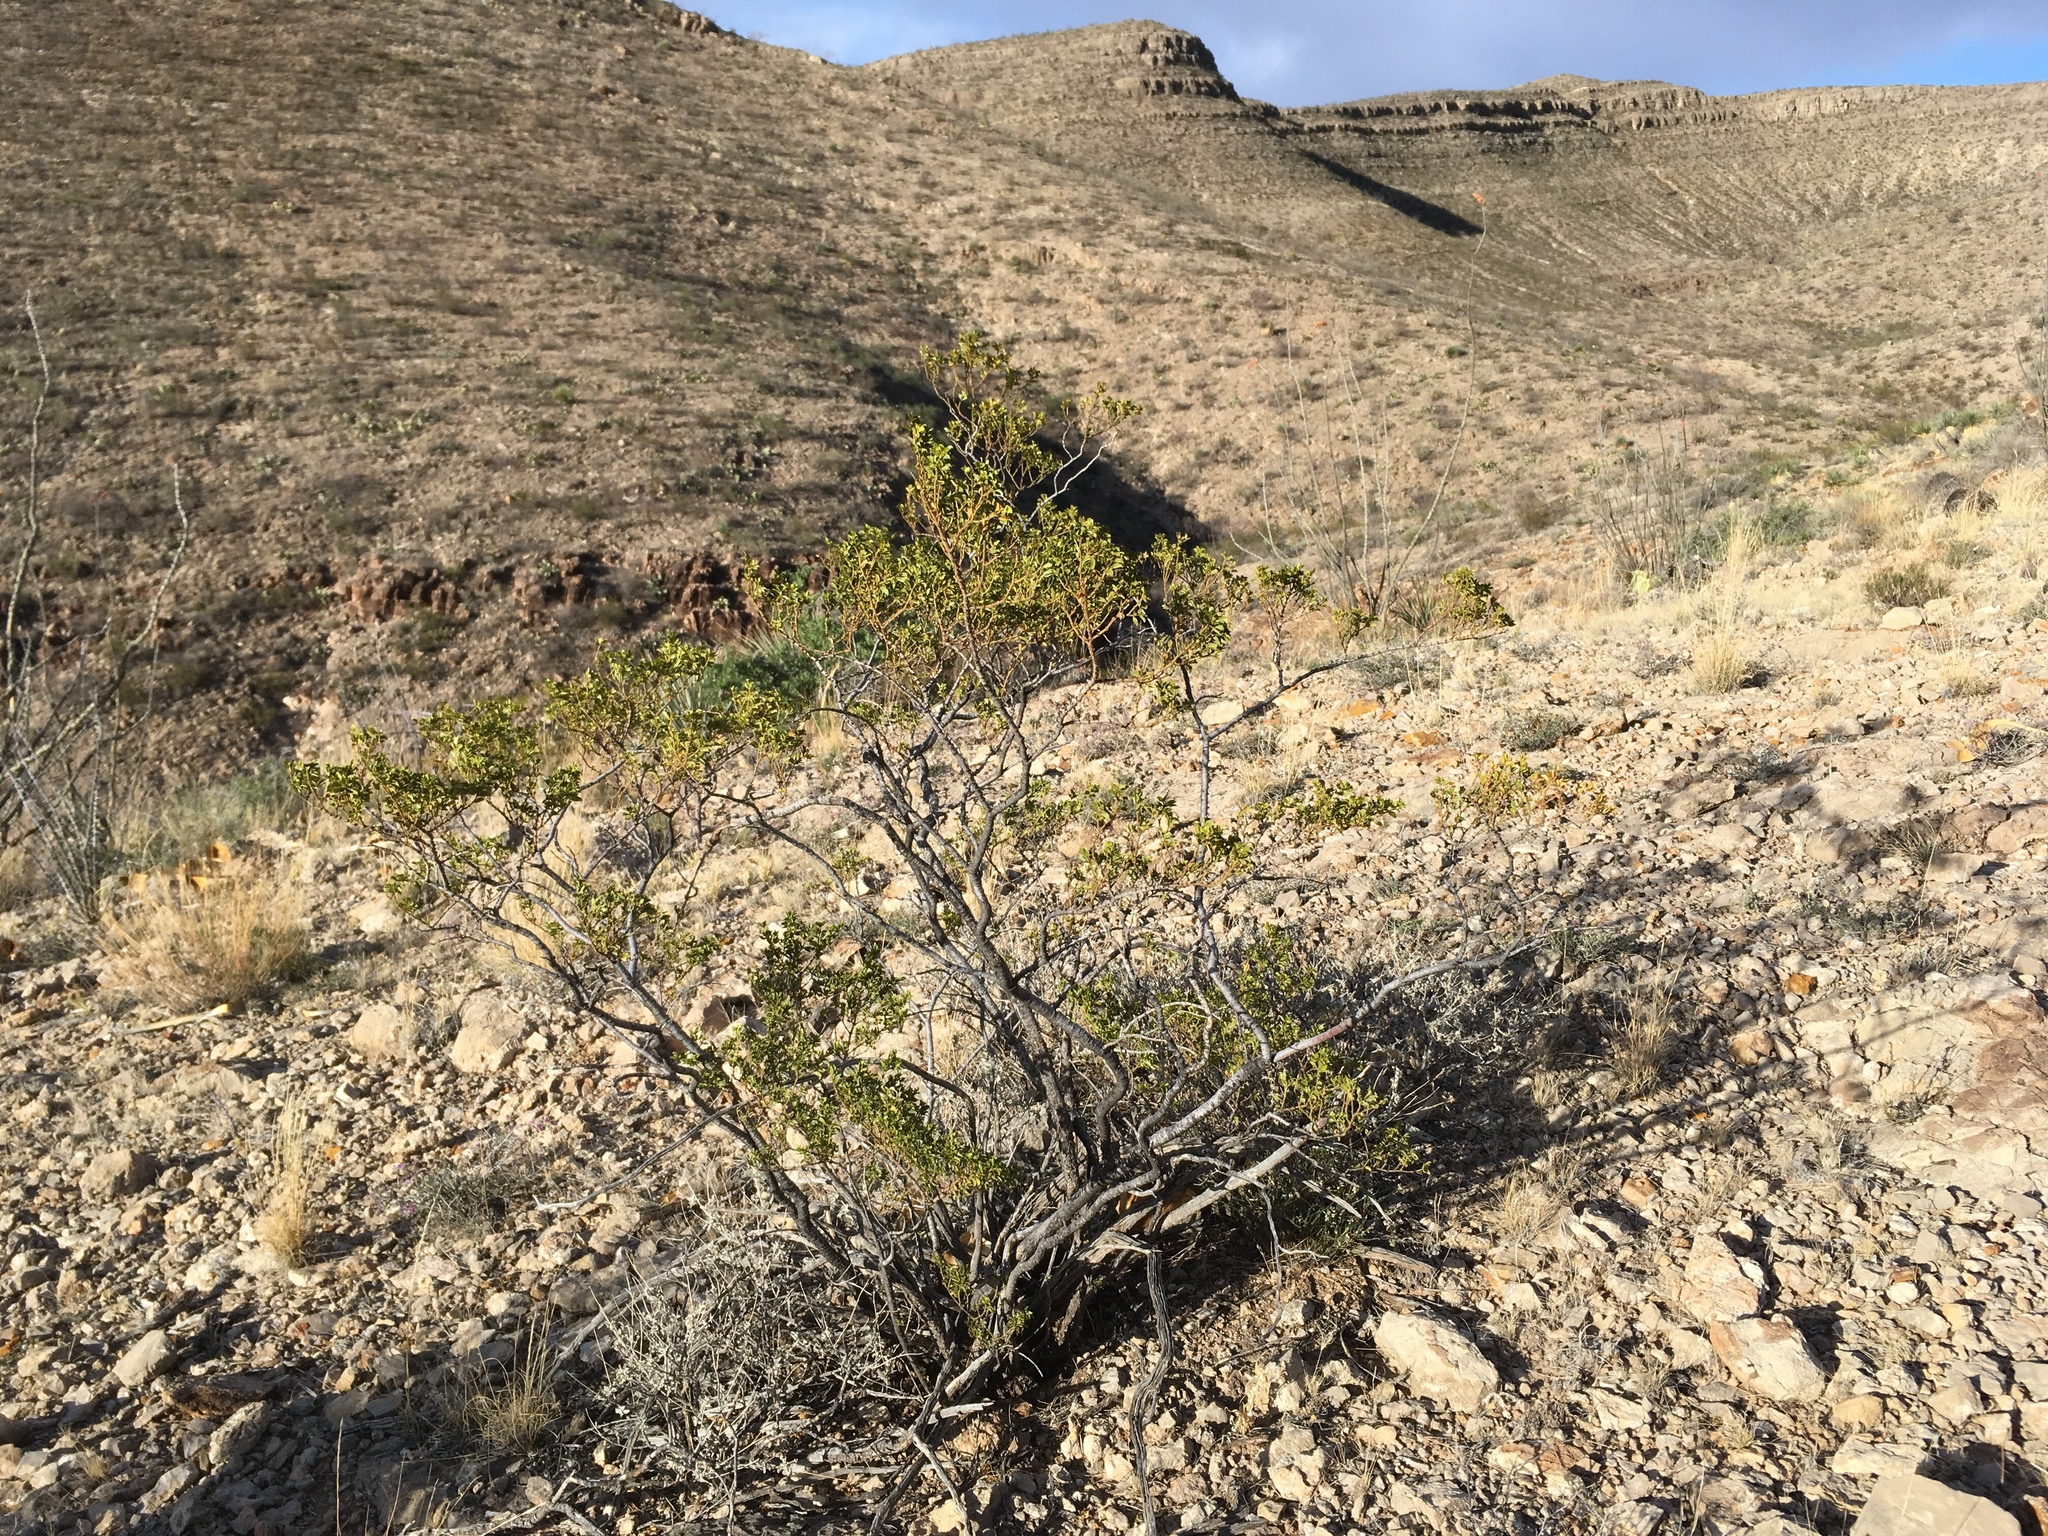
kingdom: Plantae
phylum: Tracheophyta
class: Magnoliopsida
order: Zygophyllales
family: Zygophyllaceae
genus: Larrea
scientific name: Larrea tridentata
